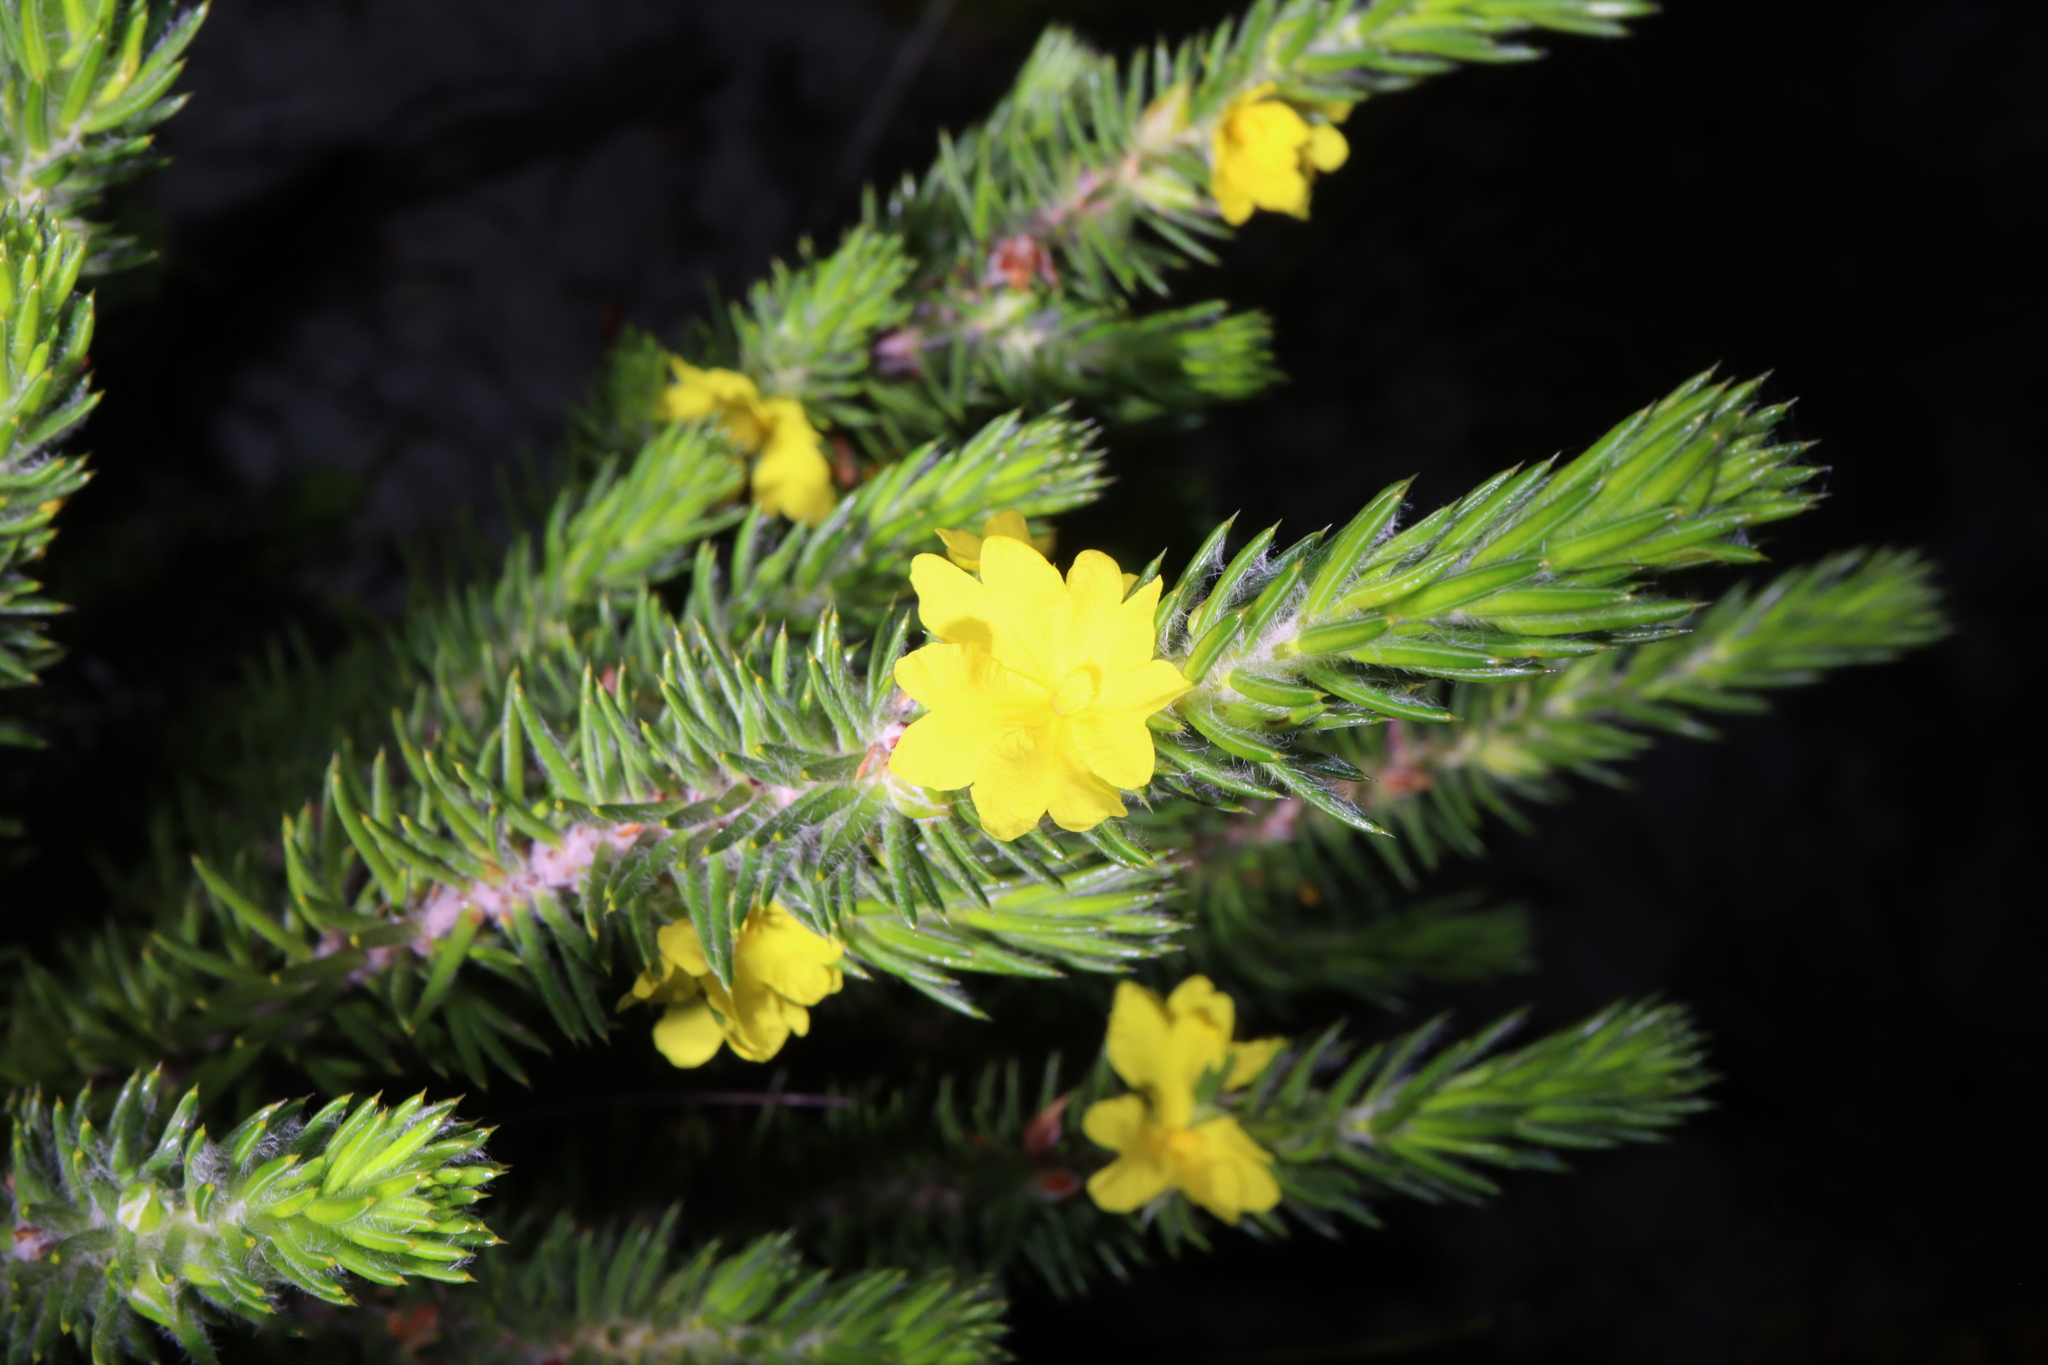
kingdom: Plantae
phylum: Tracheophyta
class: Magnoliopsida
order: Dilleniales
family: Dilleniaceae
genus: Hibbertia
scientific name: Hibbertia mucronata
